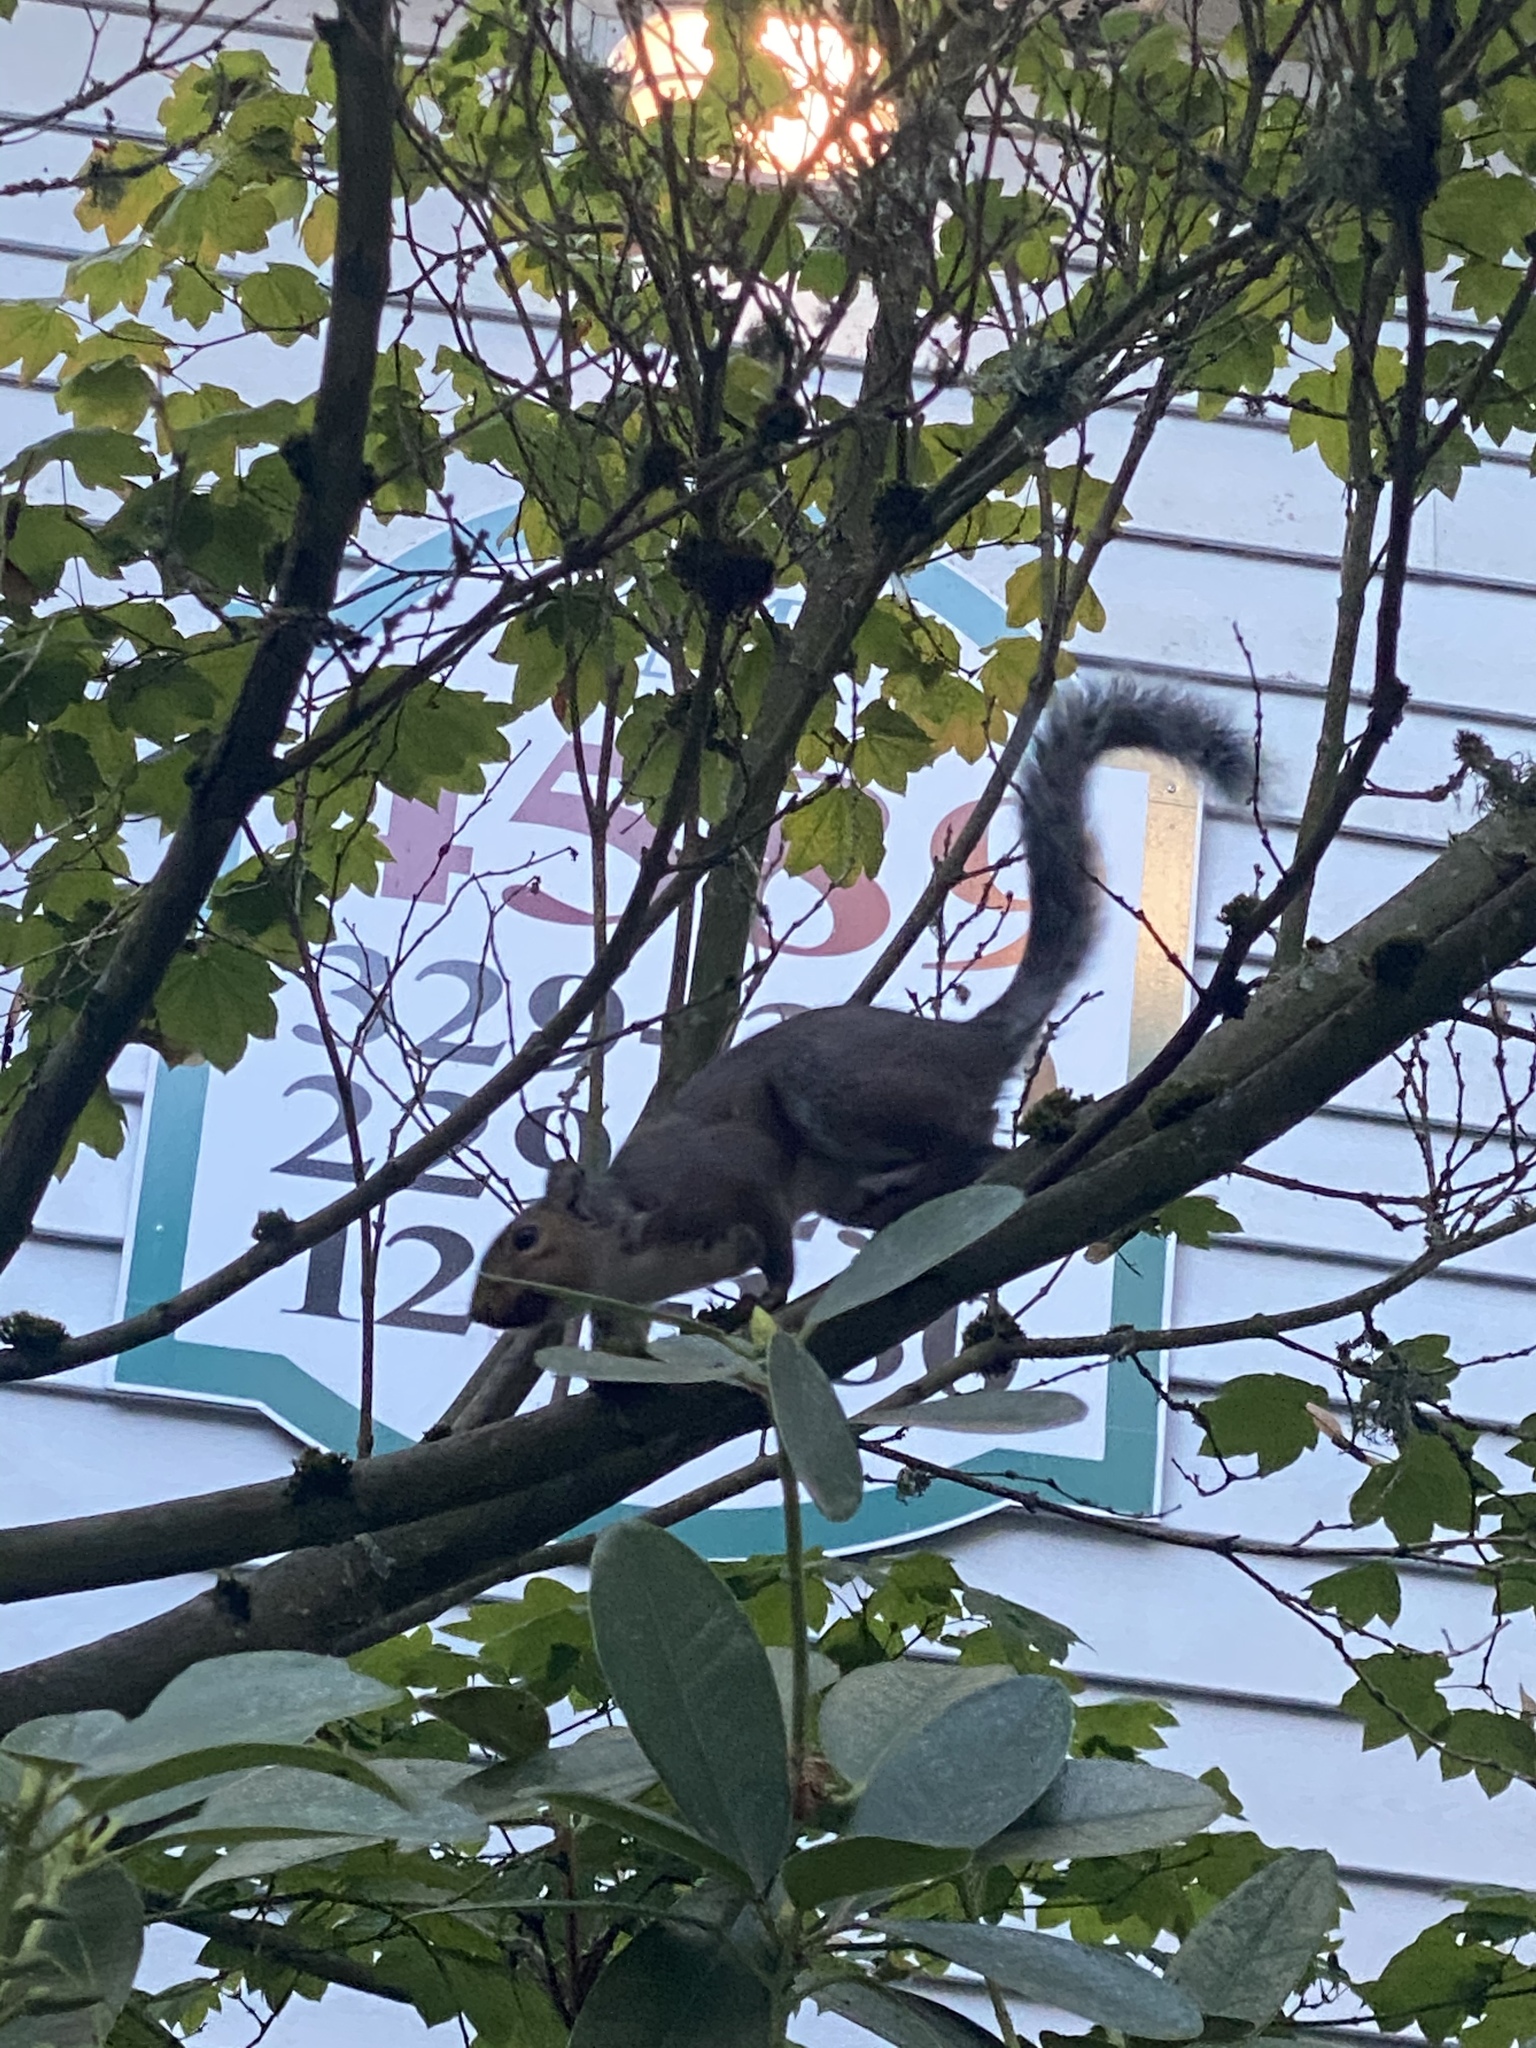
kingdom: Animalia
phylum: Chordata
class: Mammalia
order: Rodentia
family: Sciuridae
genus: Sciurus
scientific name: Sciurus carolinensis
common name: Eastern gray squirrel
